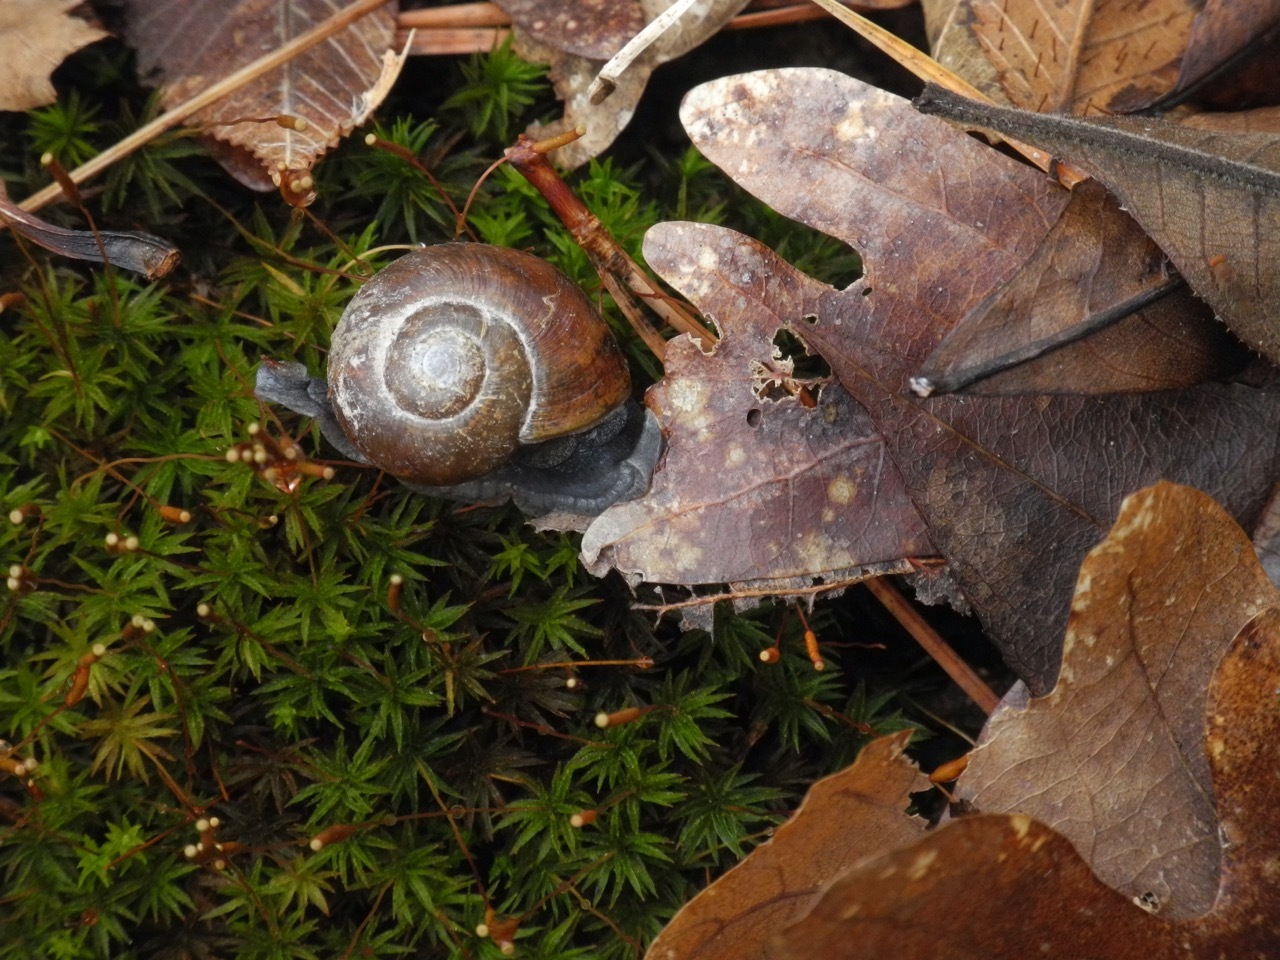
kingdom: Animalia
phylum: Mollusca
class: Gastropoda
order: Stylommatophora
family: Gastrodontidae
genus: Mesomphix
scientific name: Mesomphix rugeli
